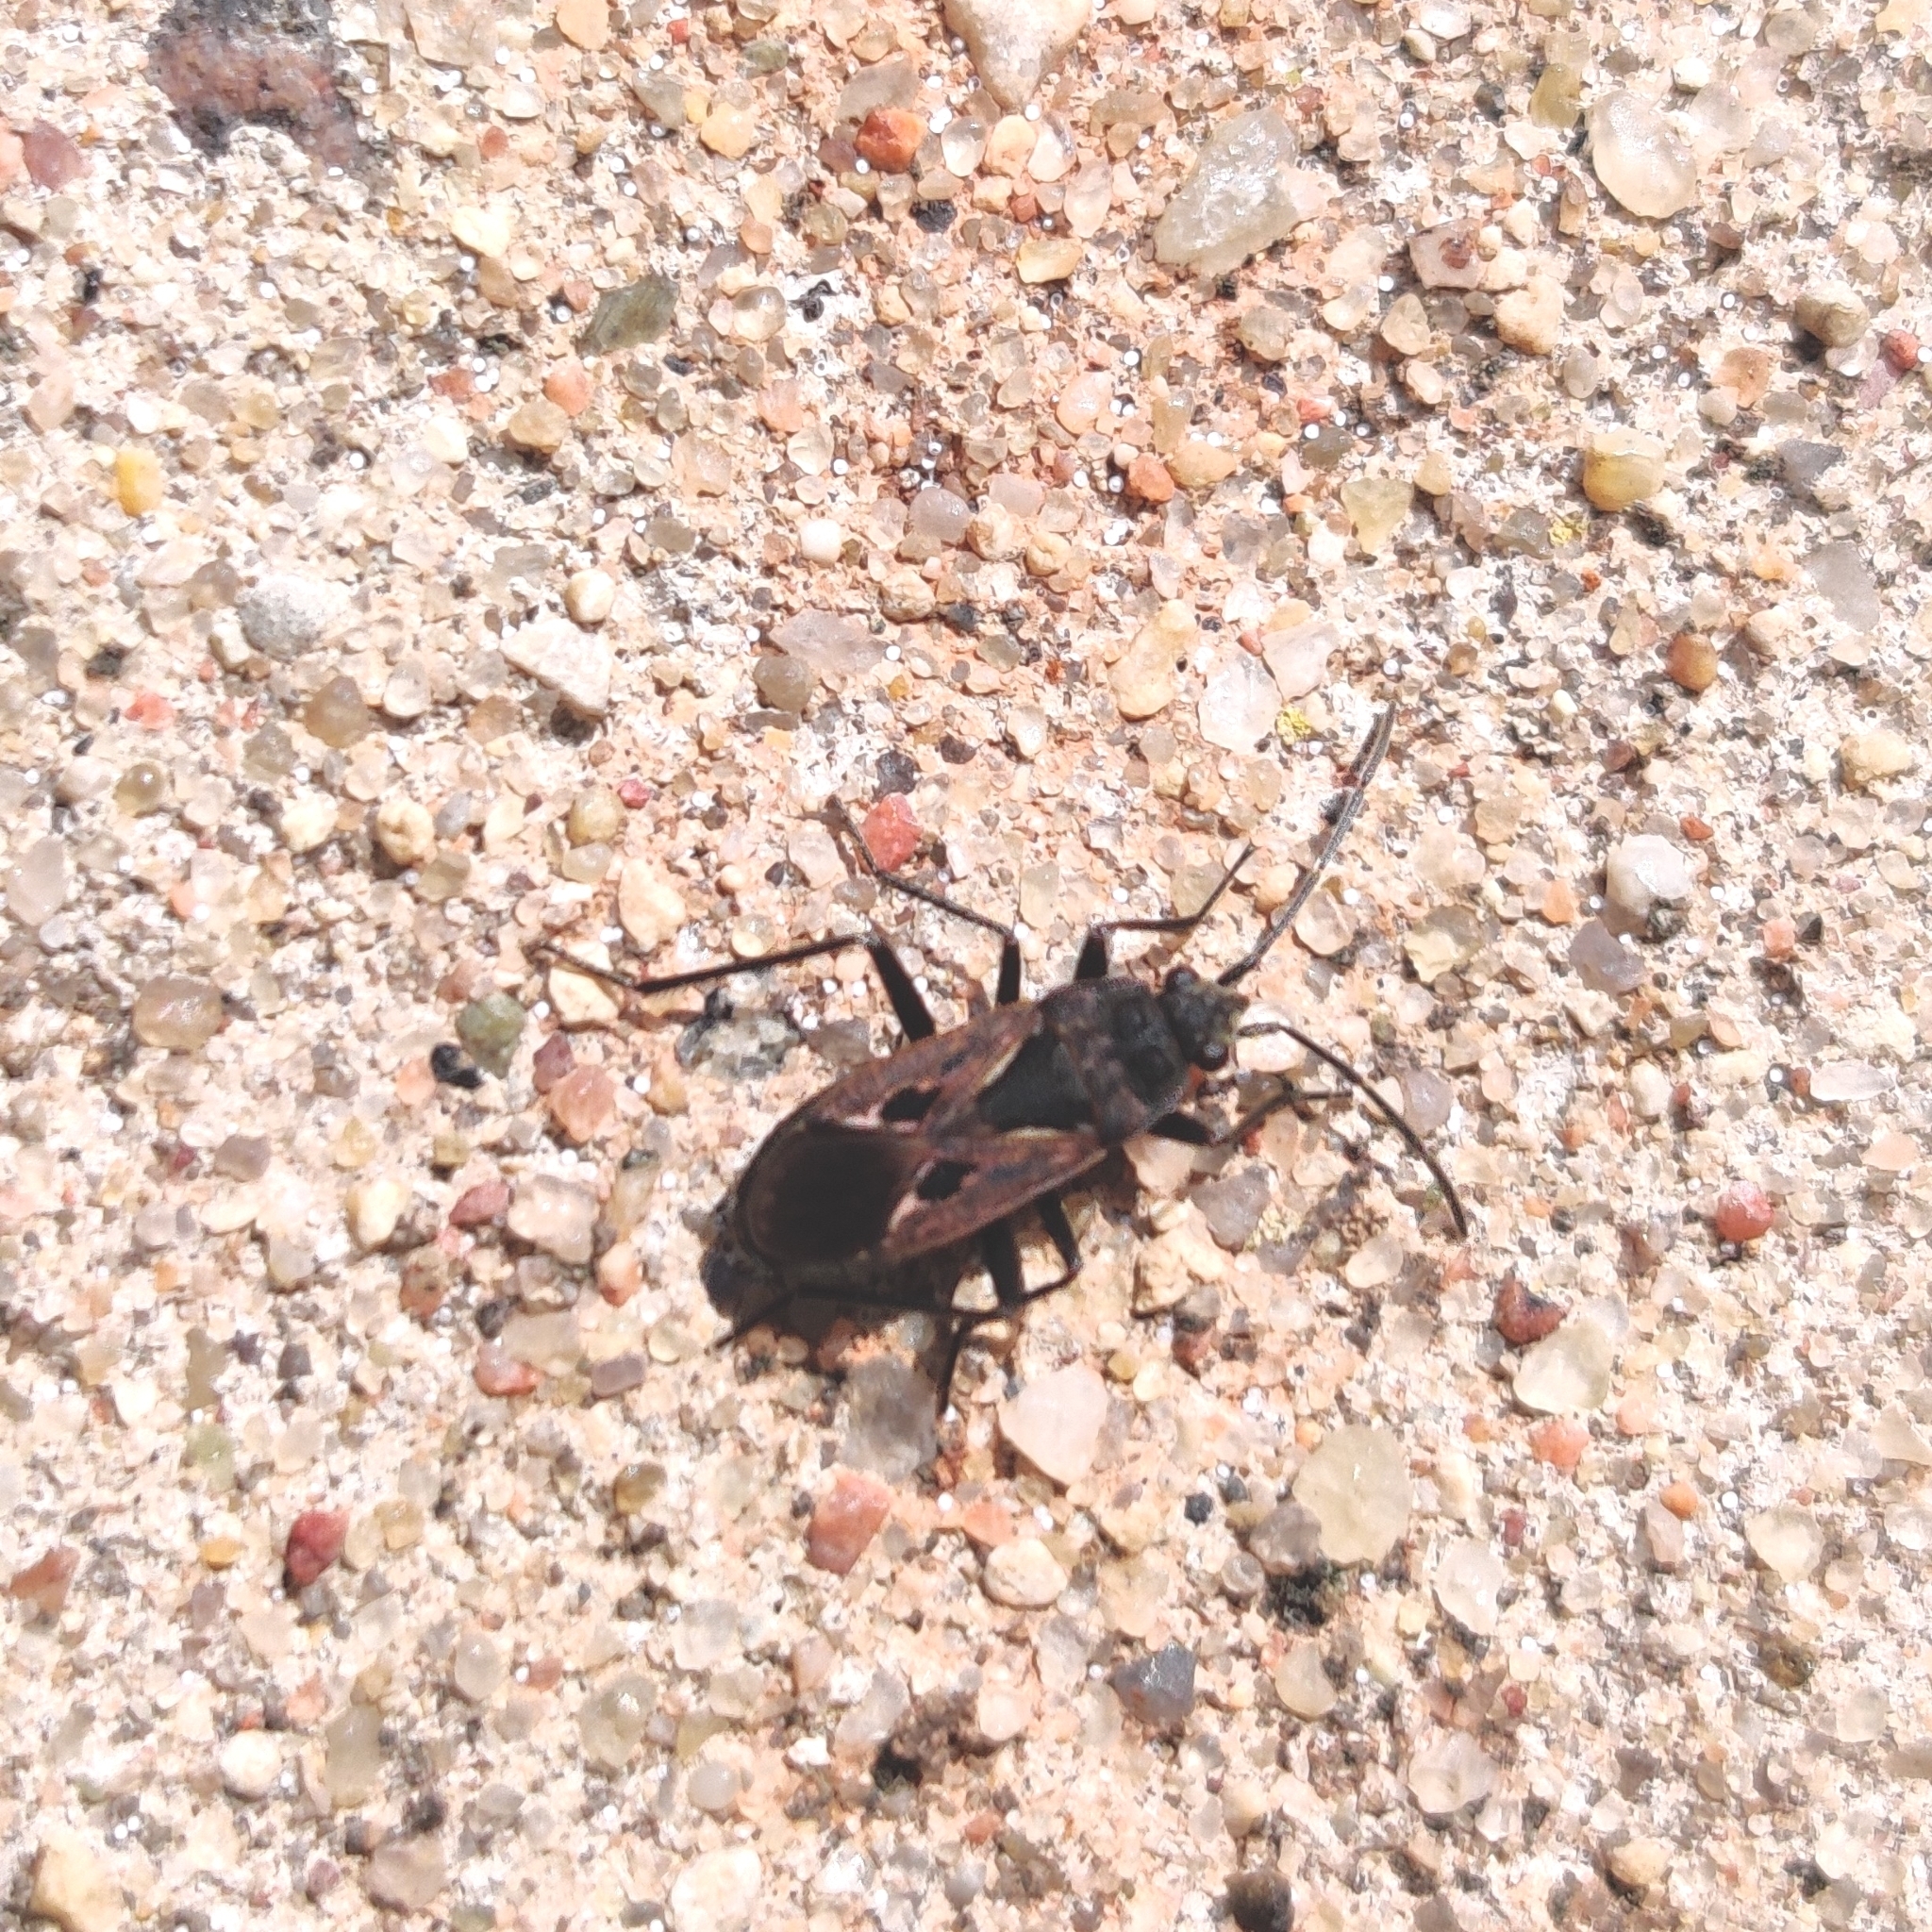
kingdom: Animalia
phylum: Arthropoda
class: Insecta
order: Hemiptera
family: Rhyparochromidae
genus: Rhyparochromus
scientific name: Rhyparochromus pini
